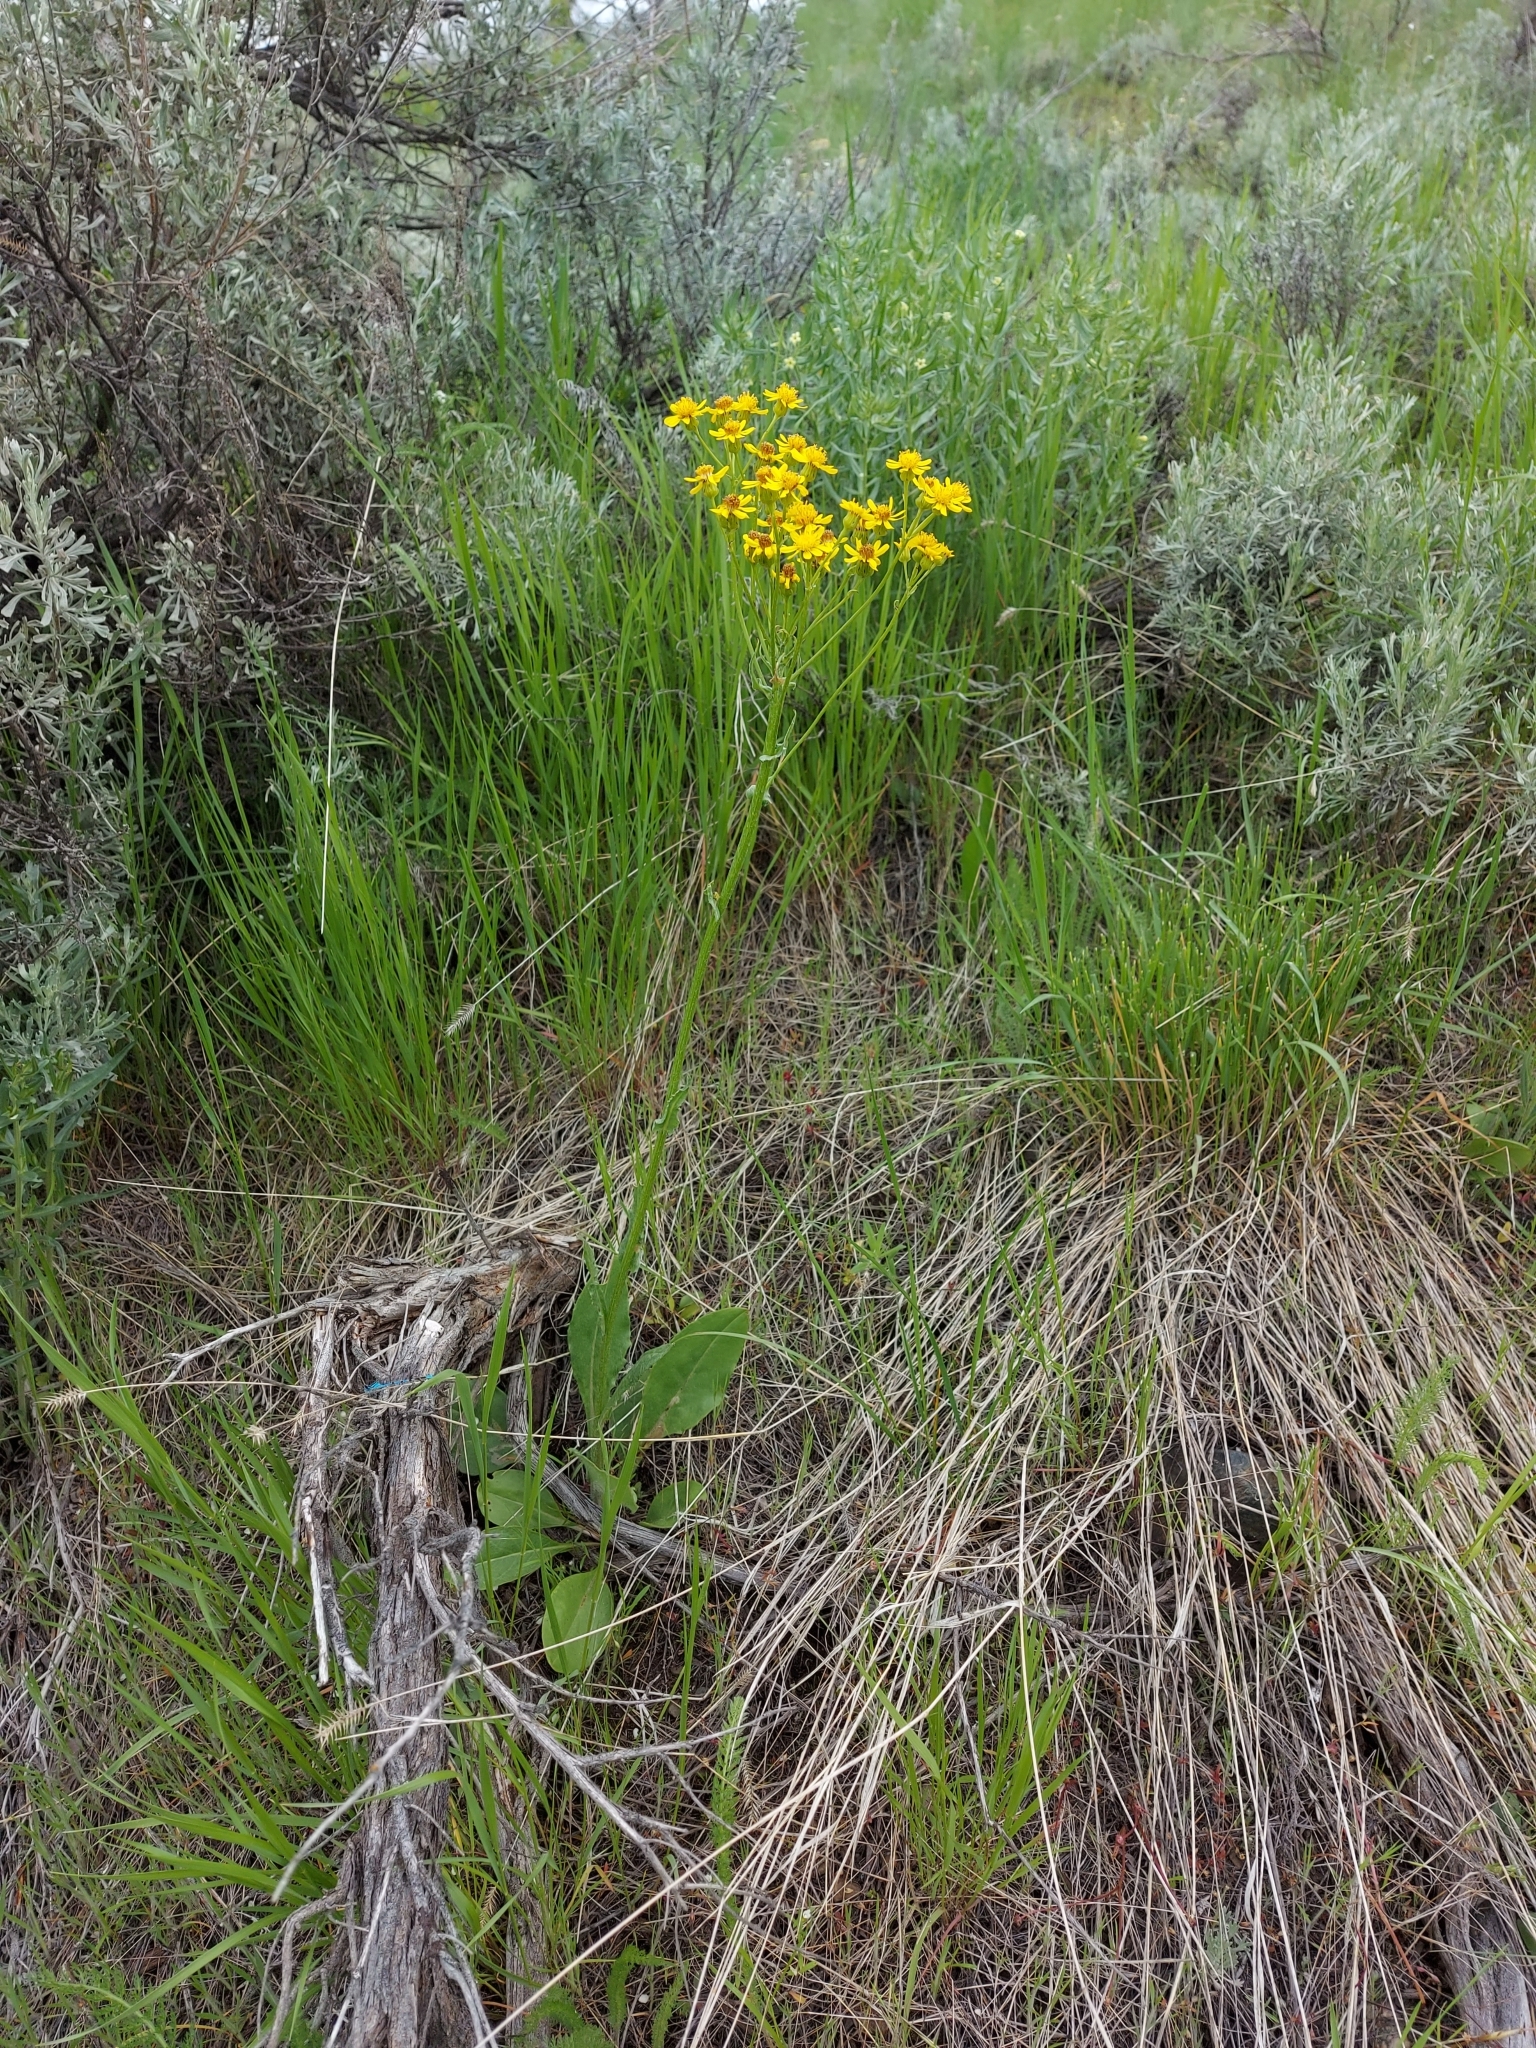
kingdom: Plantae
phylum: Tracheophyta
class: Magnoliopsida
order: Asterales
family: Asteraceae
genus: Senecio
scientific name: Senecio integerrimus
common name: Gaugeplant
